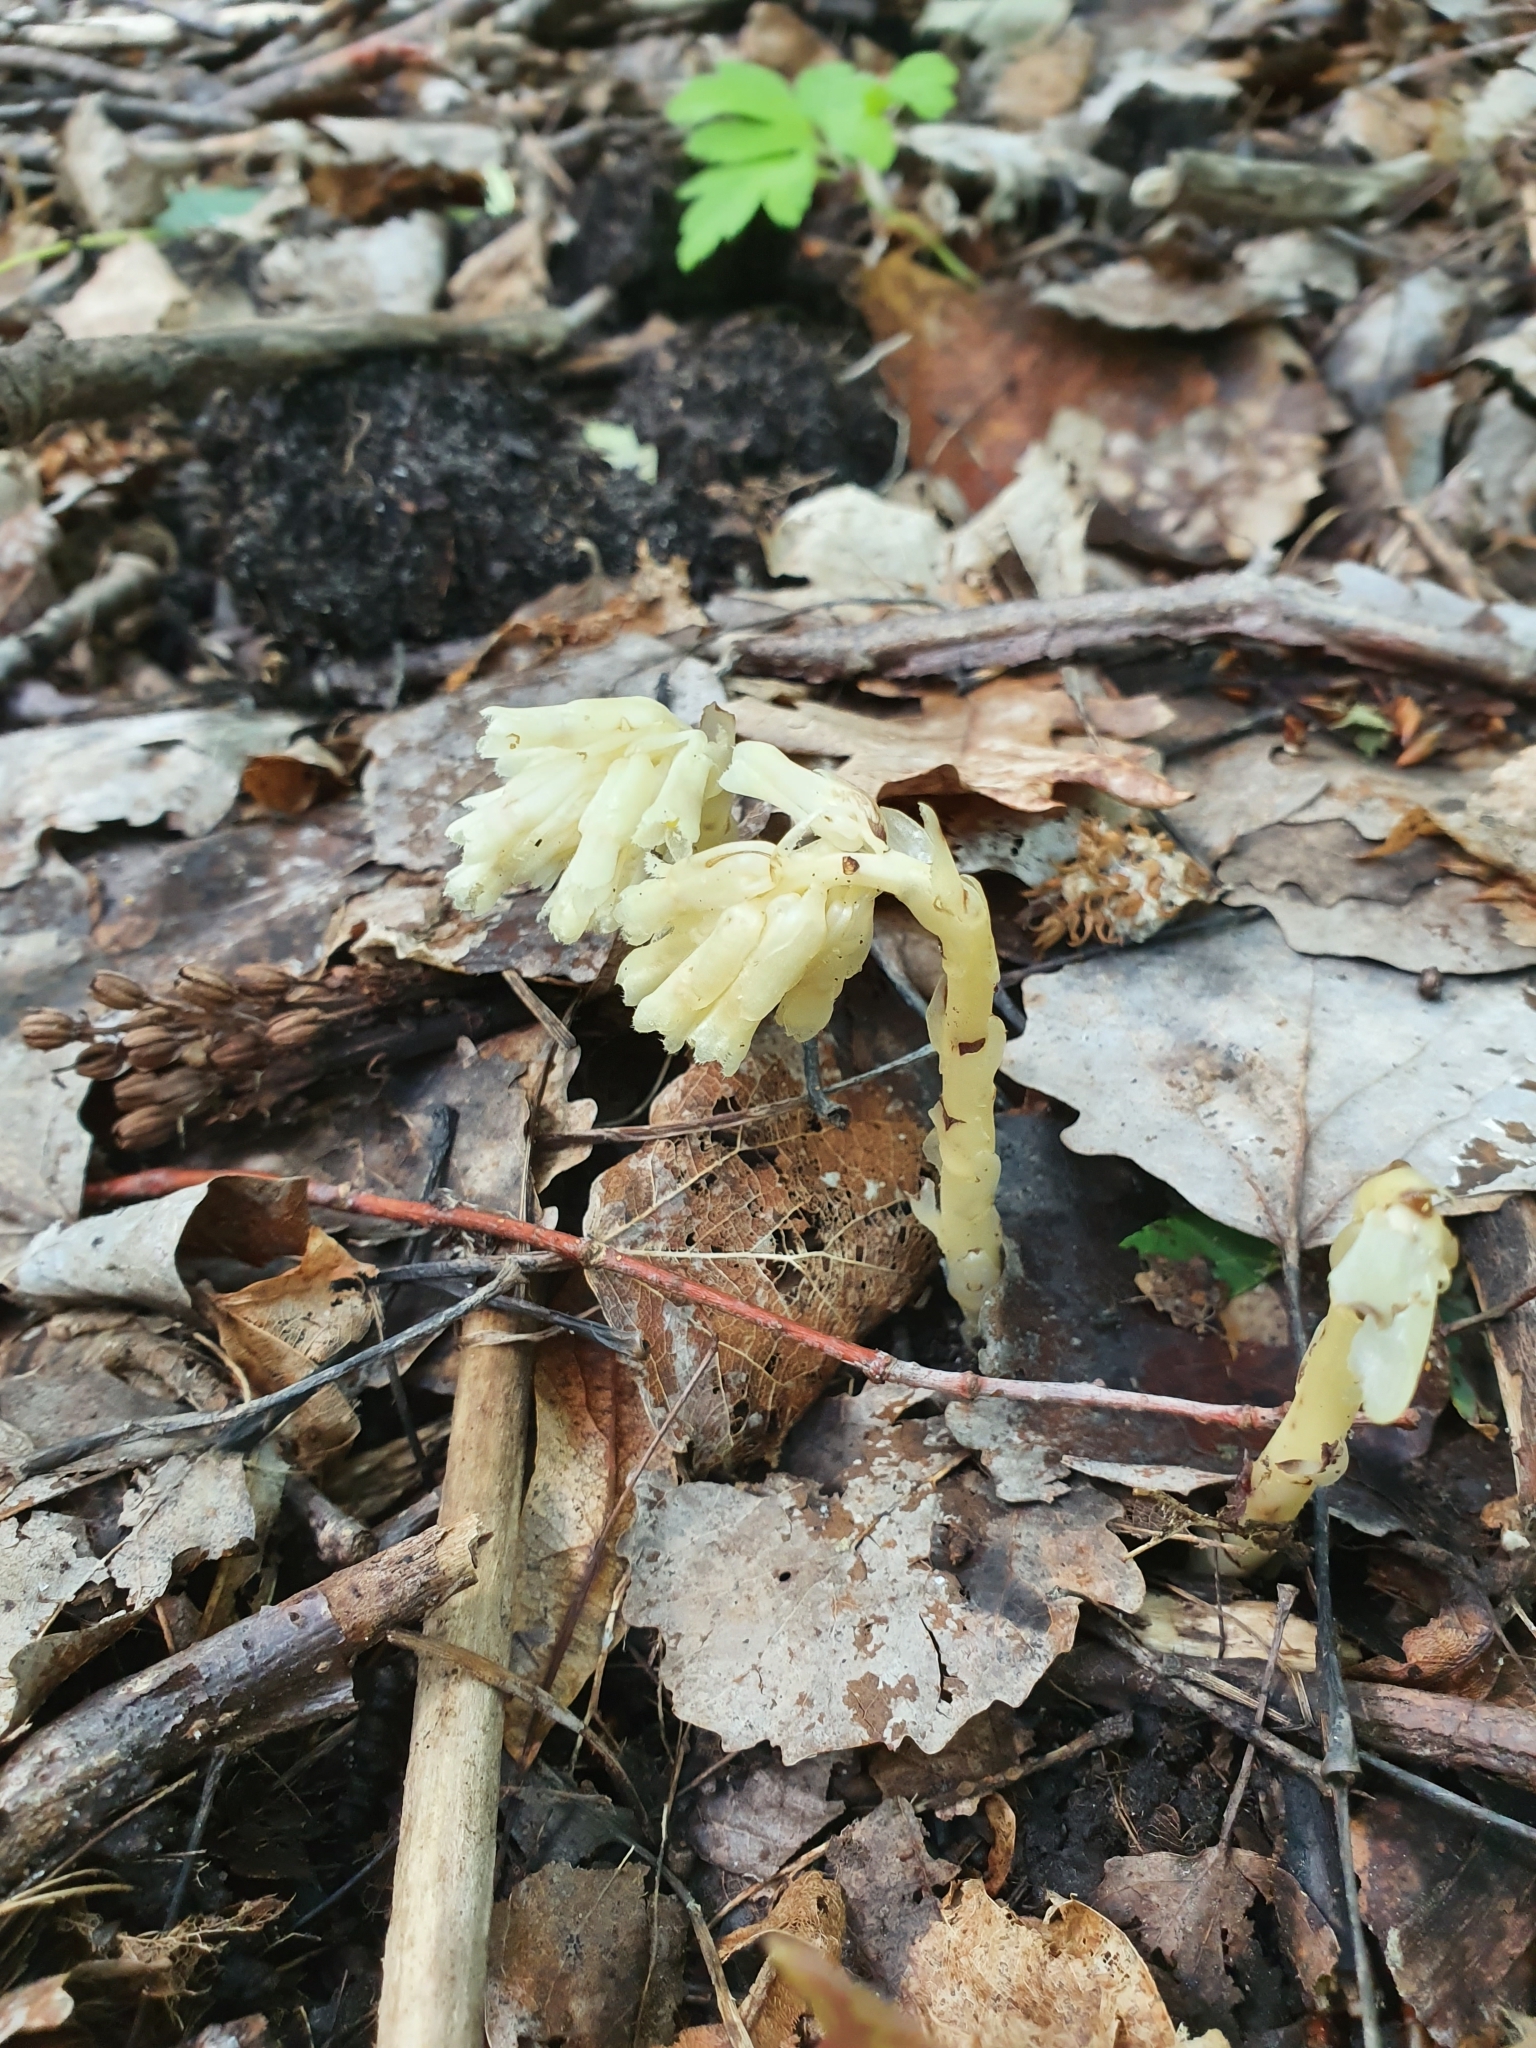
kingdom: Plantae
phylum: Tracheophyta
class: Magnoliopsida
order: Ericales
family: Ericaceae
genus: Hypopitys
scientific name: Hypopitys monotropa
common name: Yellow bird's-nest
